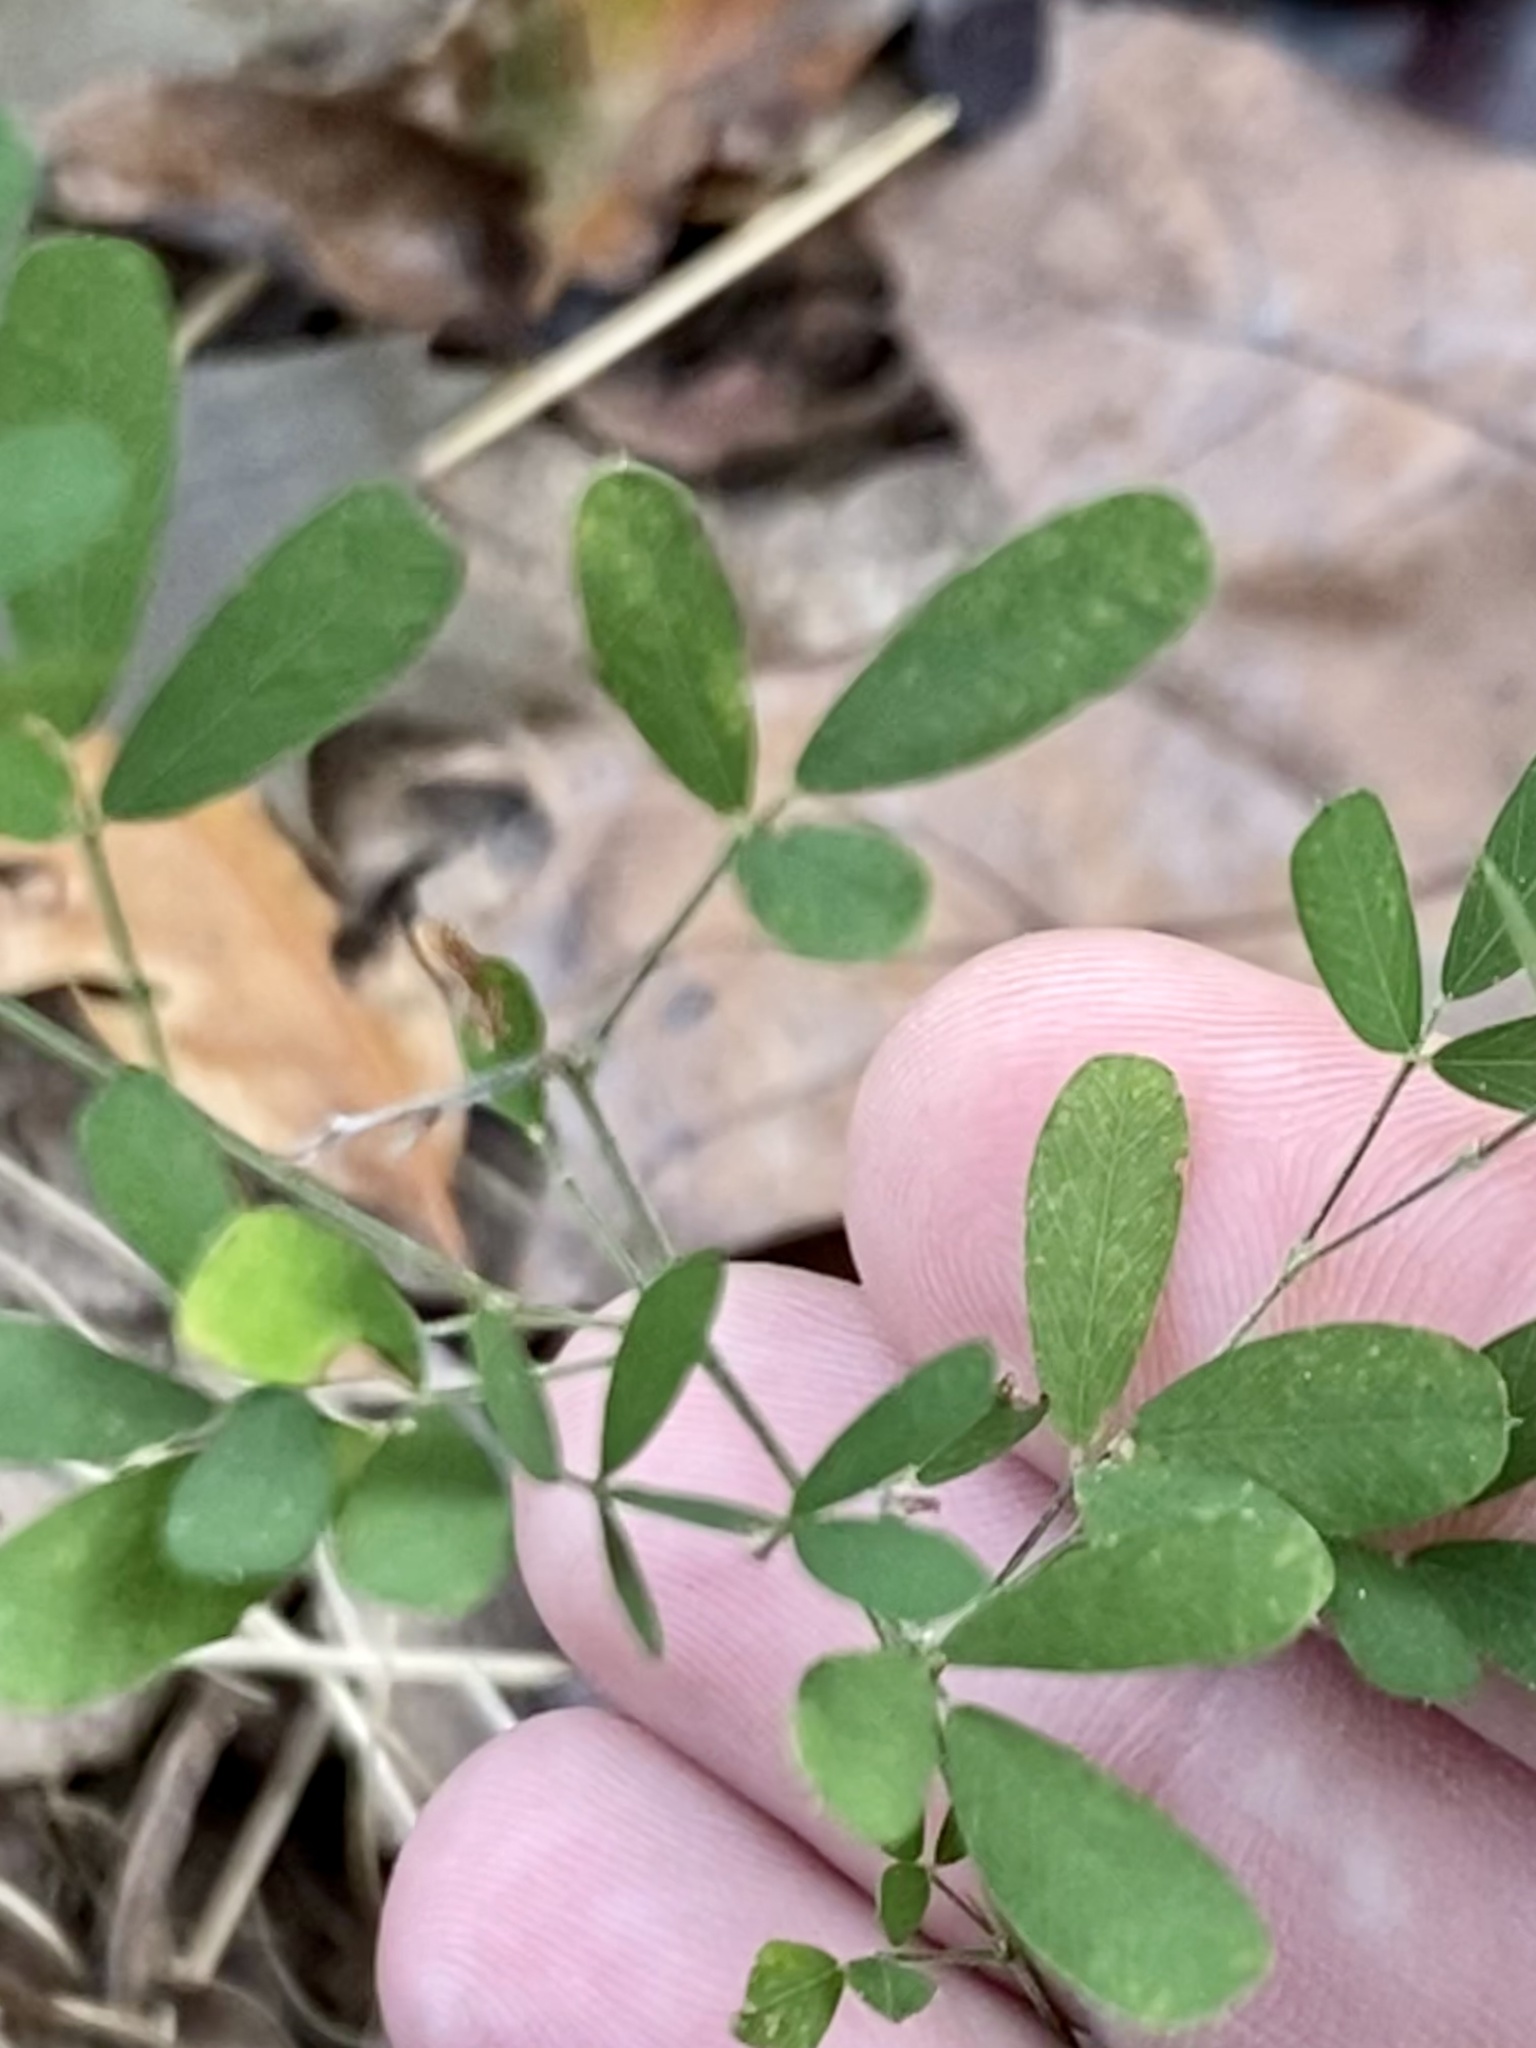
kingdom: Plantae
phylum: Tracheophyta
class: Magnoliopsida
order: Fabales
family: Fabaceae
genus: Lespedeza
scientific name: Lespedeza cuneata
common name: Chinese bush-clover
